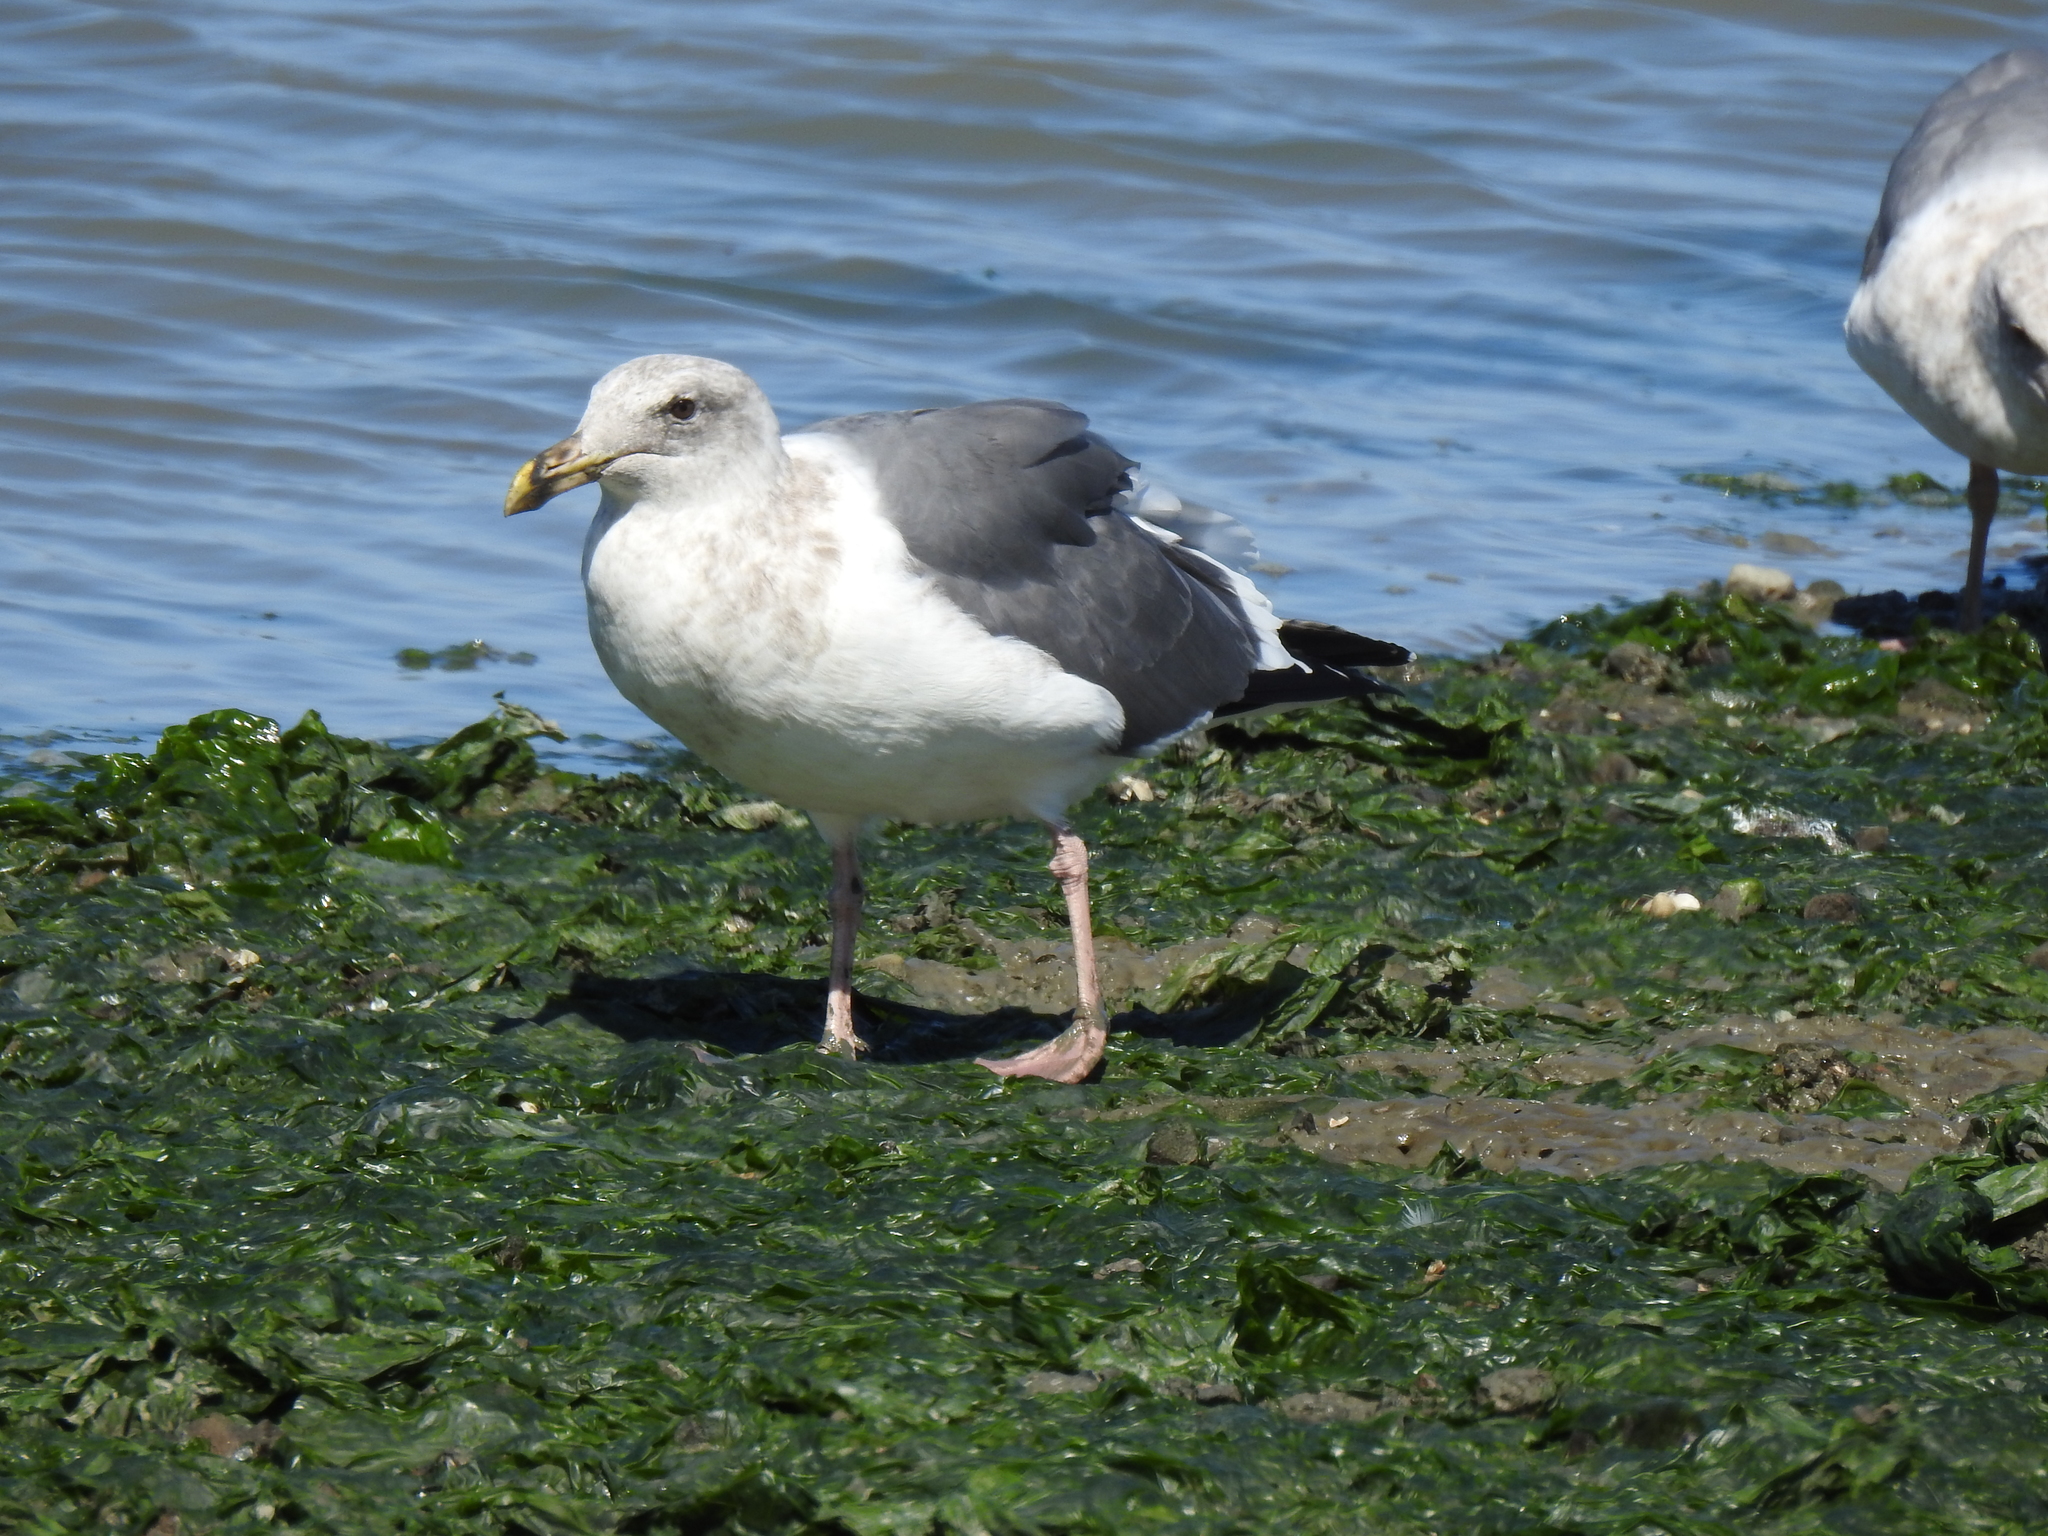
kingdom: Animalia
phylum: Chordata
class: Aves
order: Charadriiformes
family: Laridae
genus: Larus
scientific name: Larus occidentalis
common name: Western gull
